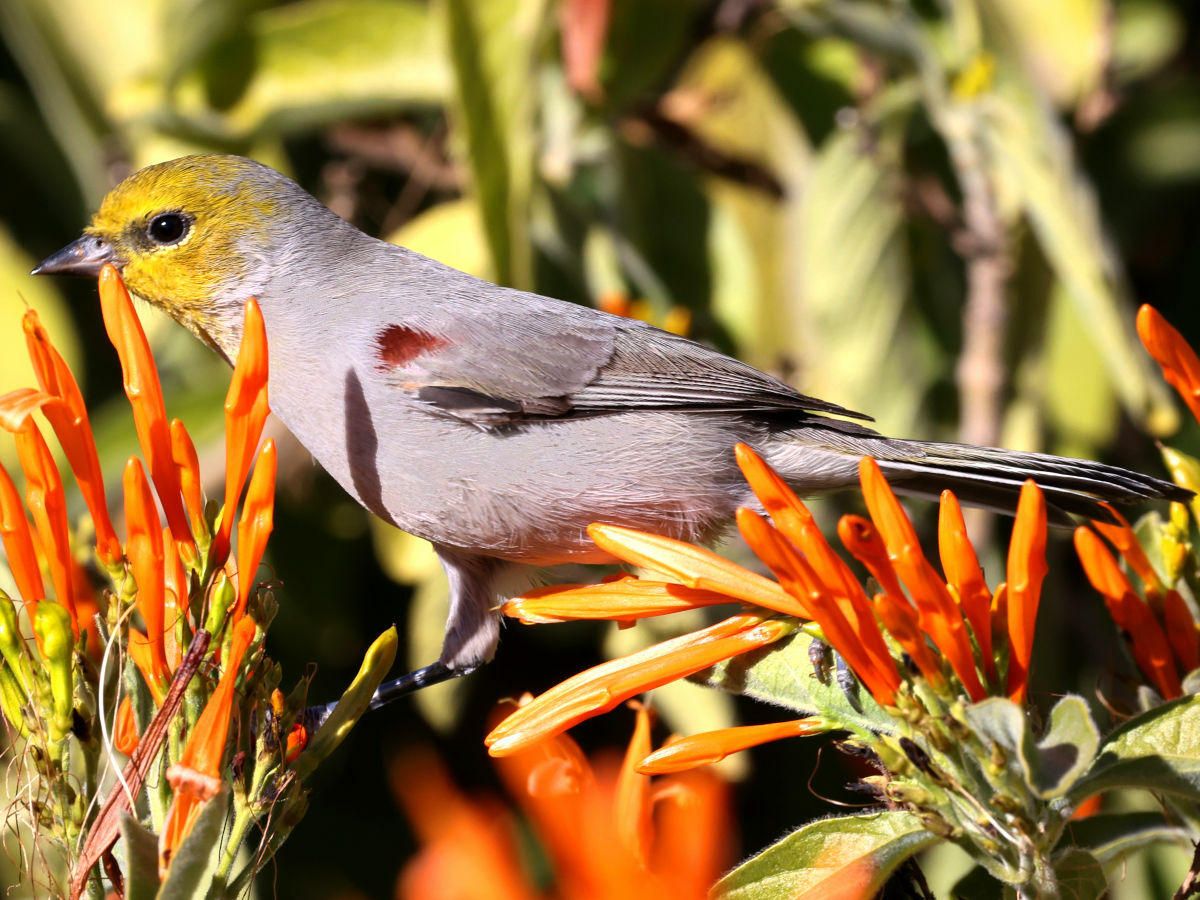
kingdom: Animalia
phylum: Chordata
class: Aves
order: Passeriformes
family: Remizidae
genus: Auriparus
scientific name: Auriparus flaviceps
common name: Verdin
